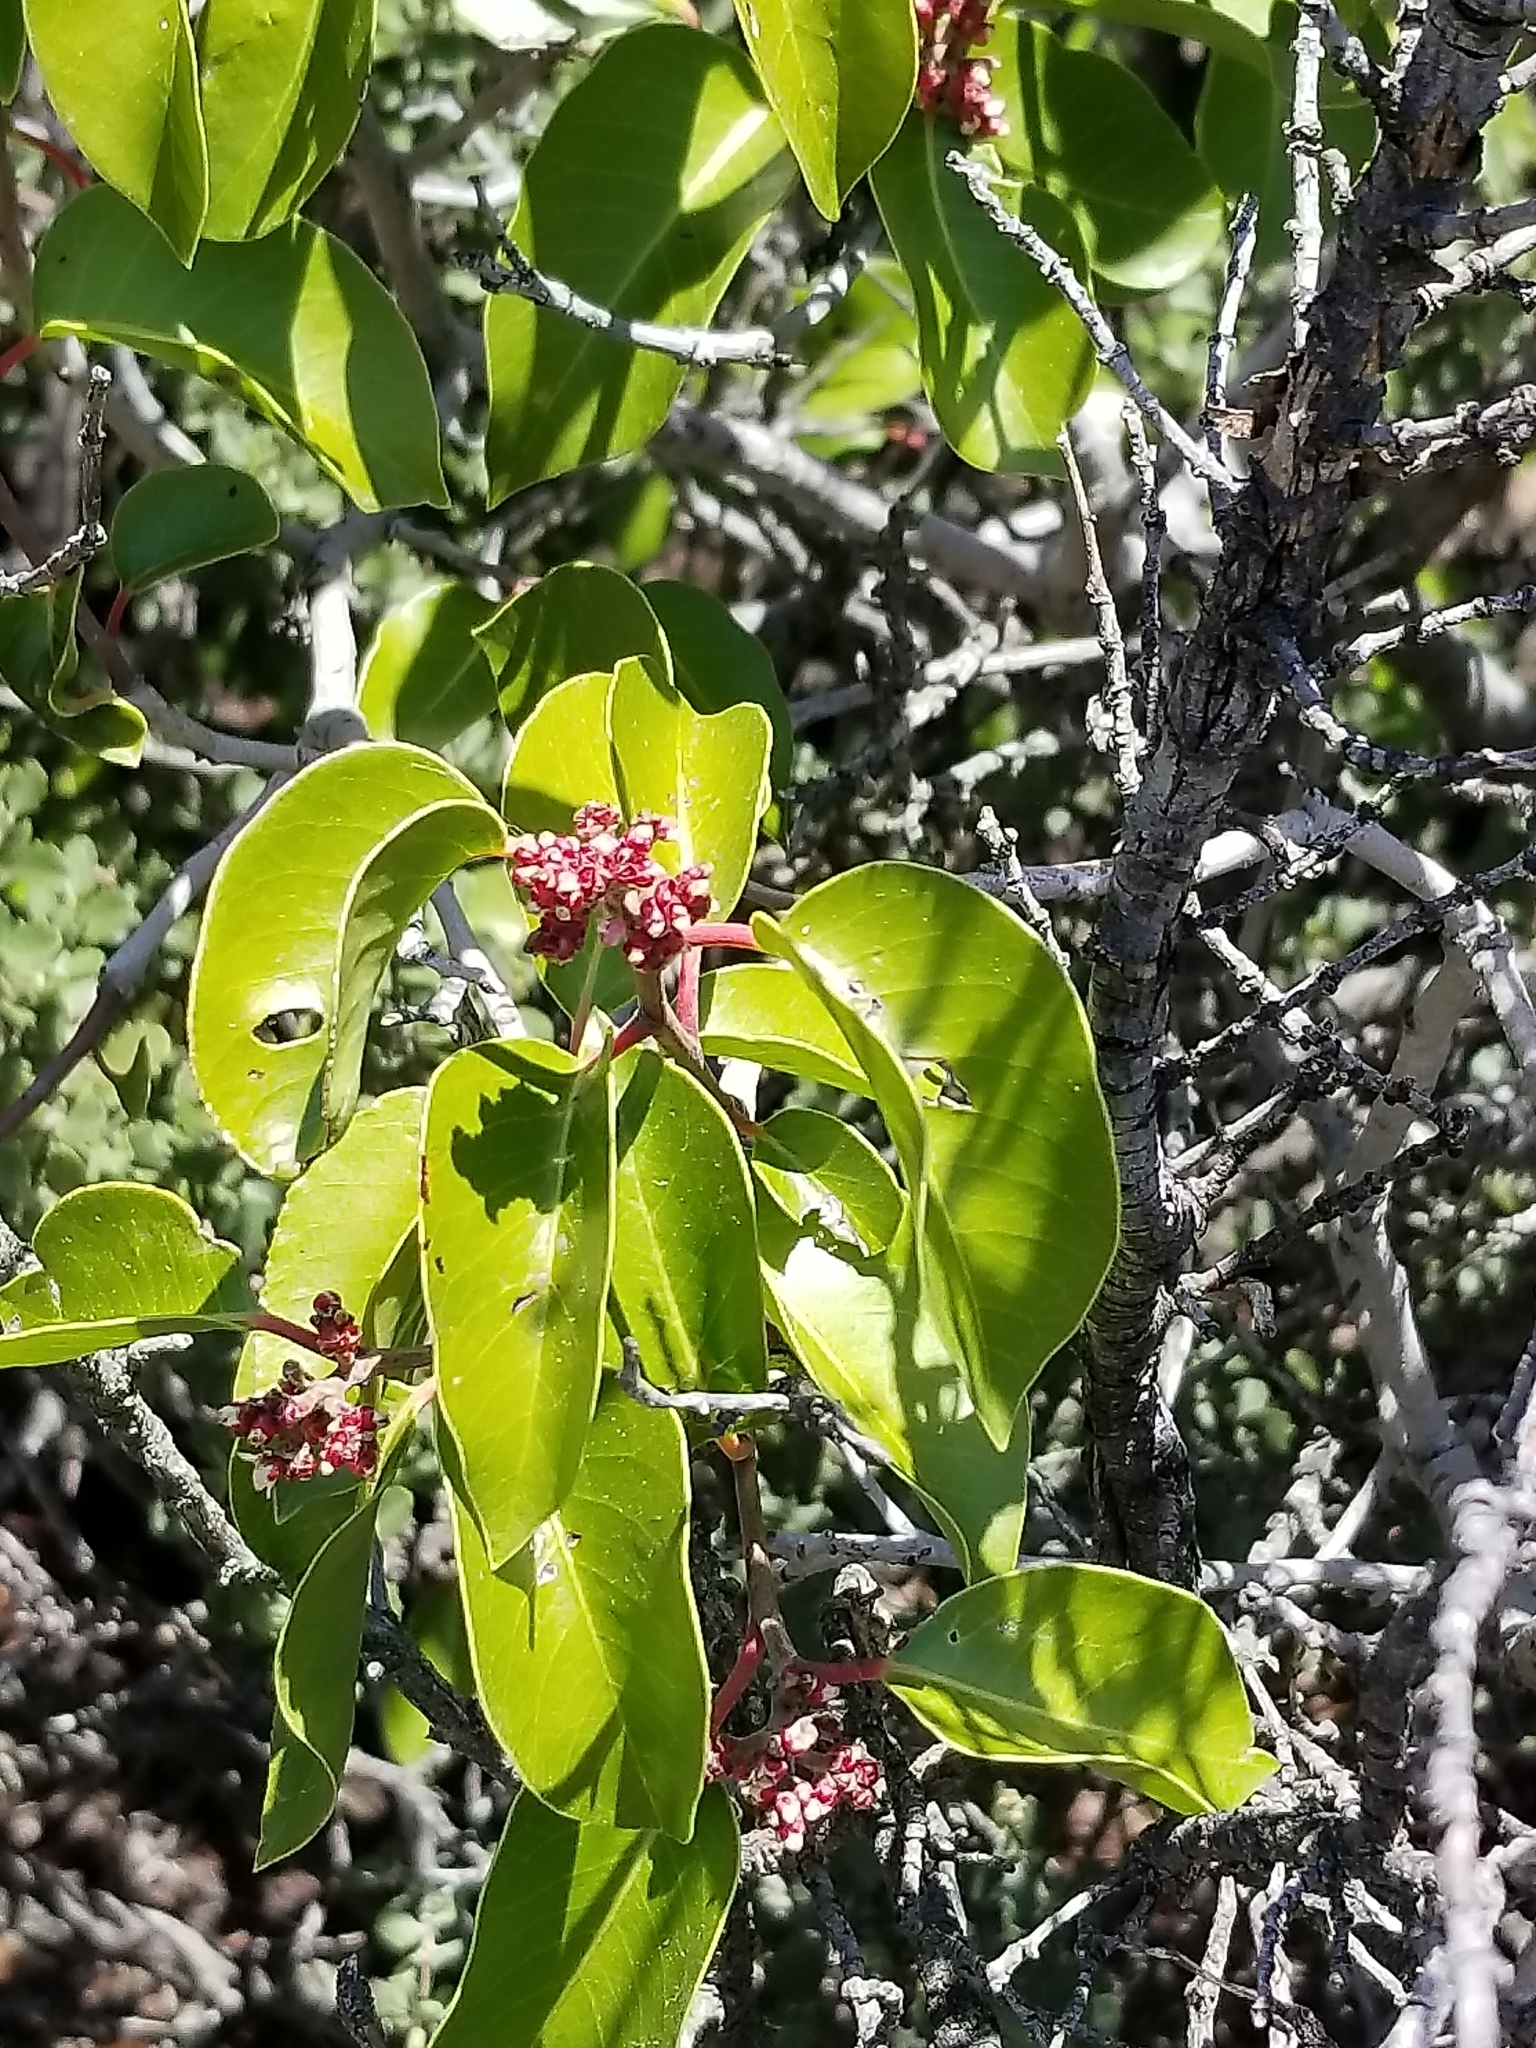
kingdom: Plantae
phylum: Tracheophyta
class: Magnoliopsida
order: Sapindales
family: Anacardiaceae
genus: Rhus
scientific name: Rhus ovata
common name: Sugar sumac
